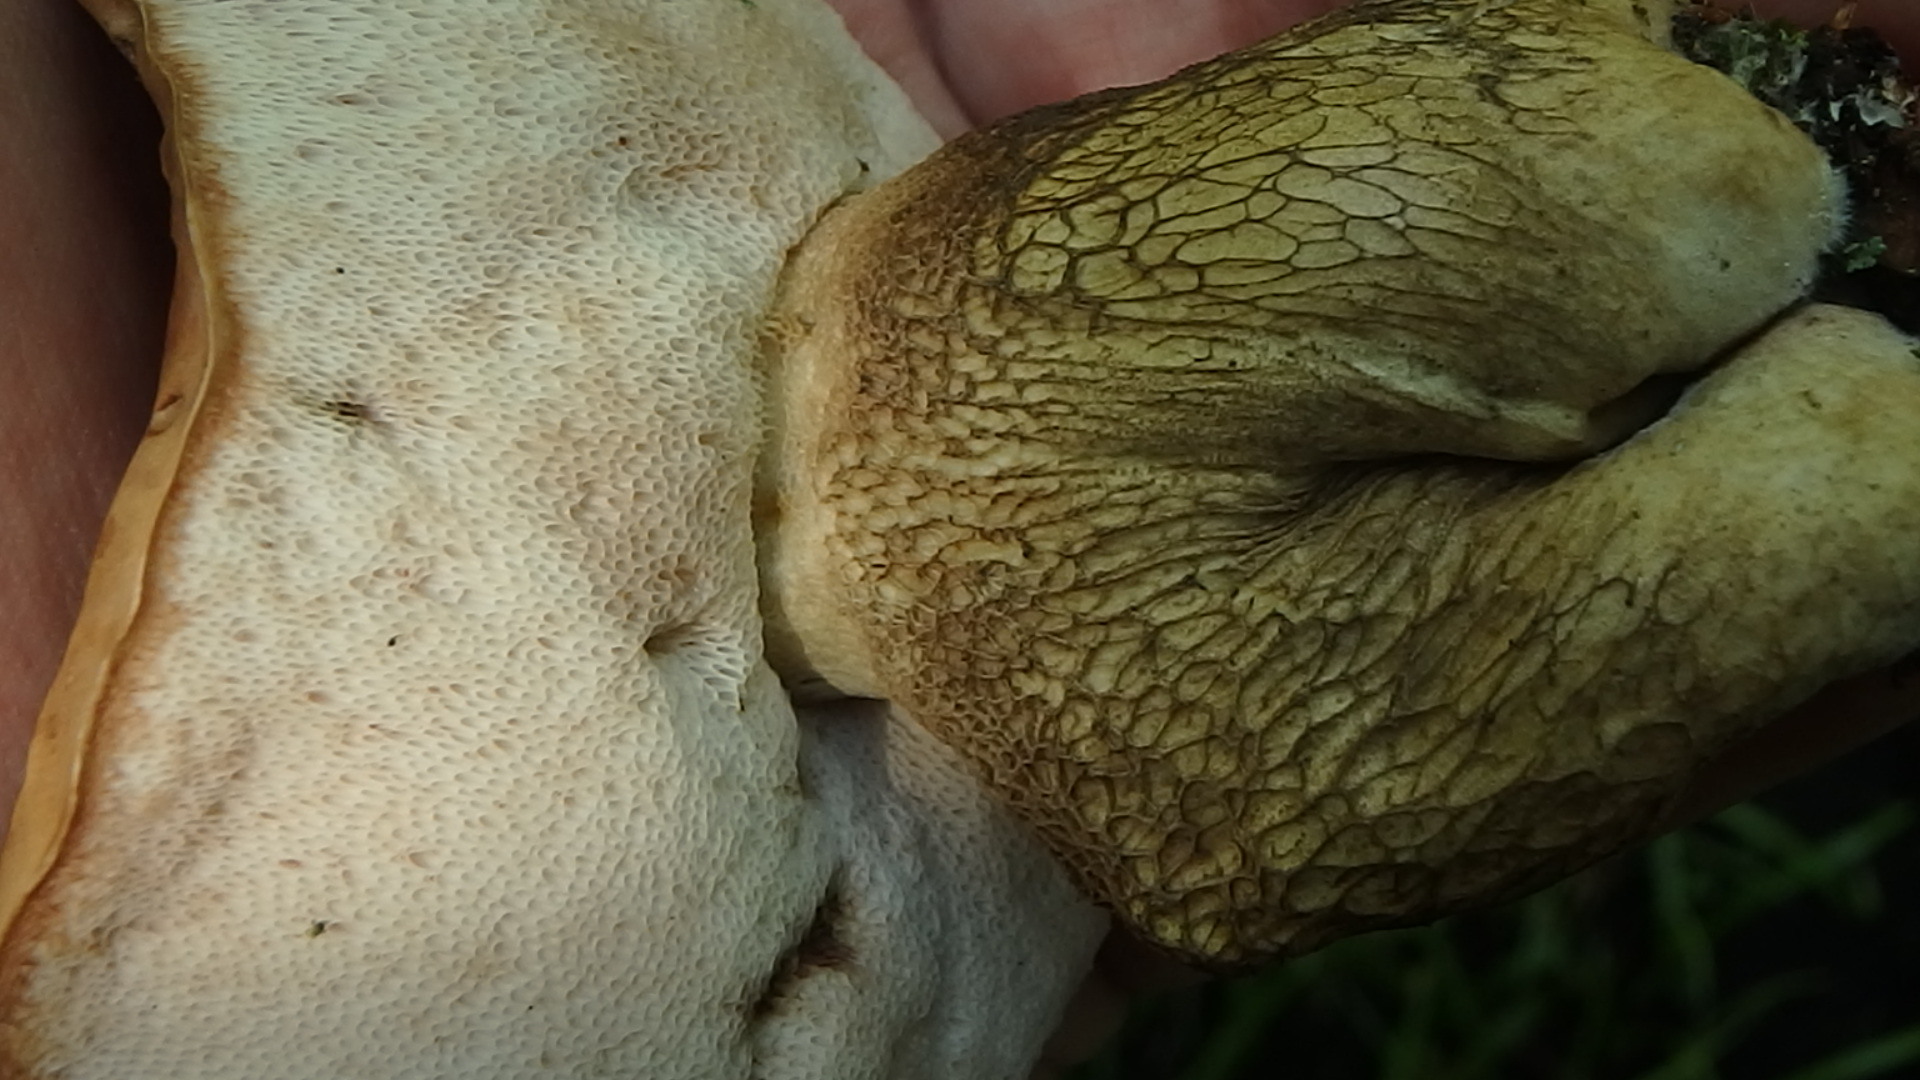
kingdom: Fungi
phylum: Basidiomycota
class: Agaricomycetes
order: Boletales
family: Boletaceae
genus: Tylopilus
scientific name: Tylopilus felleus
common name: Bitter bolete
